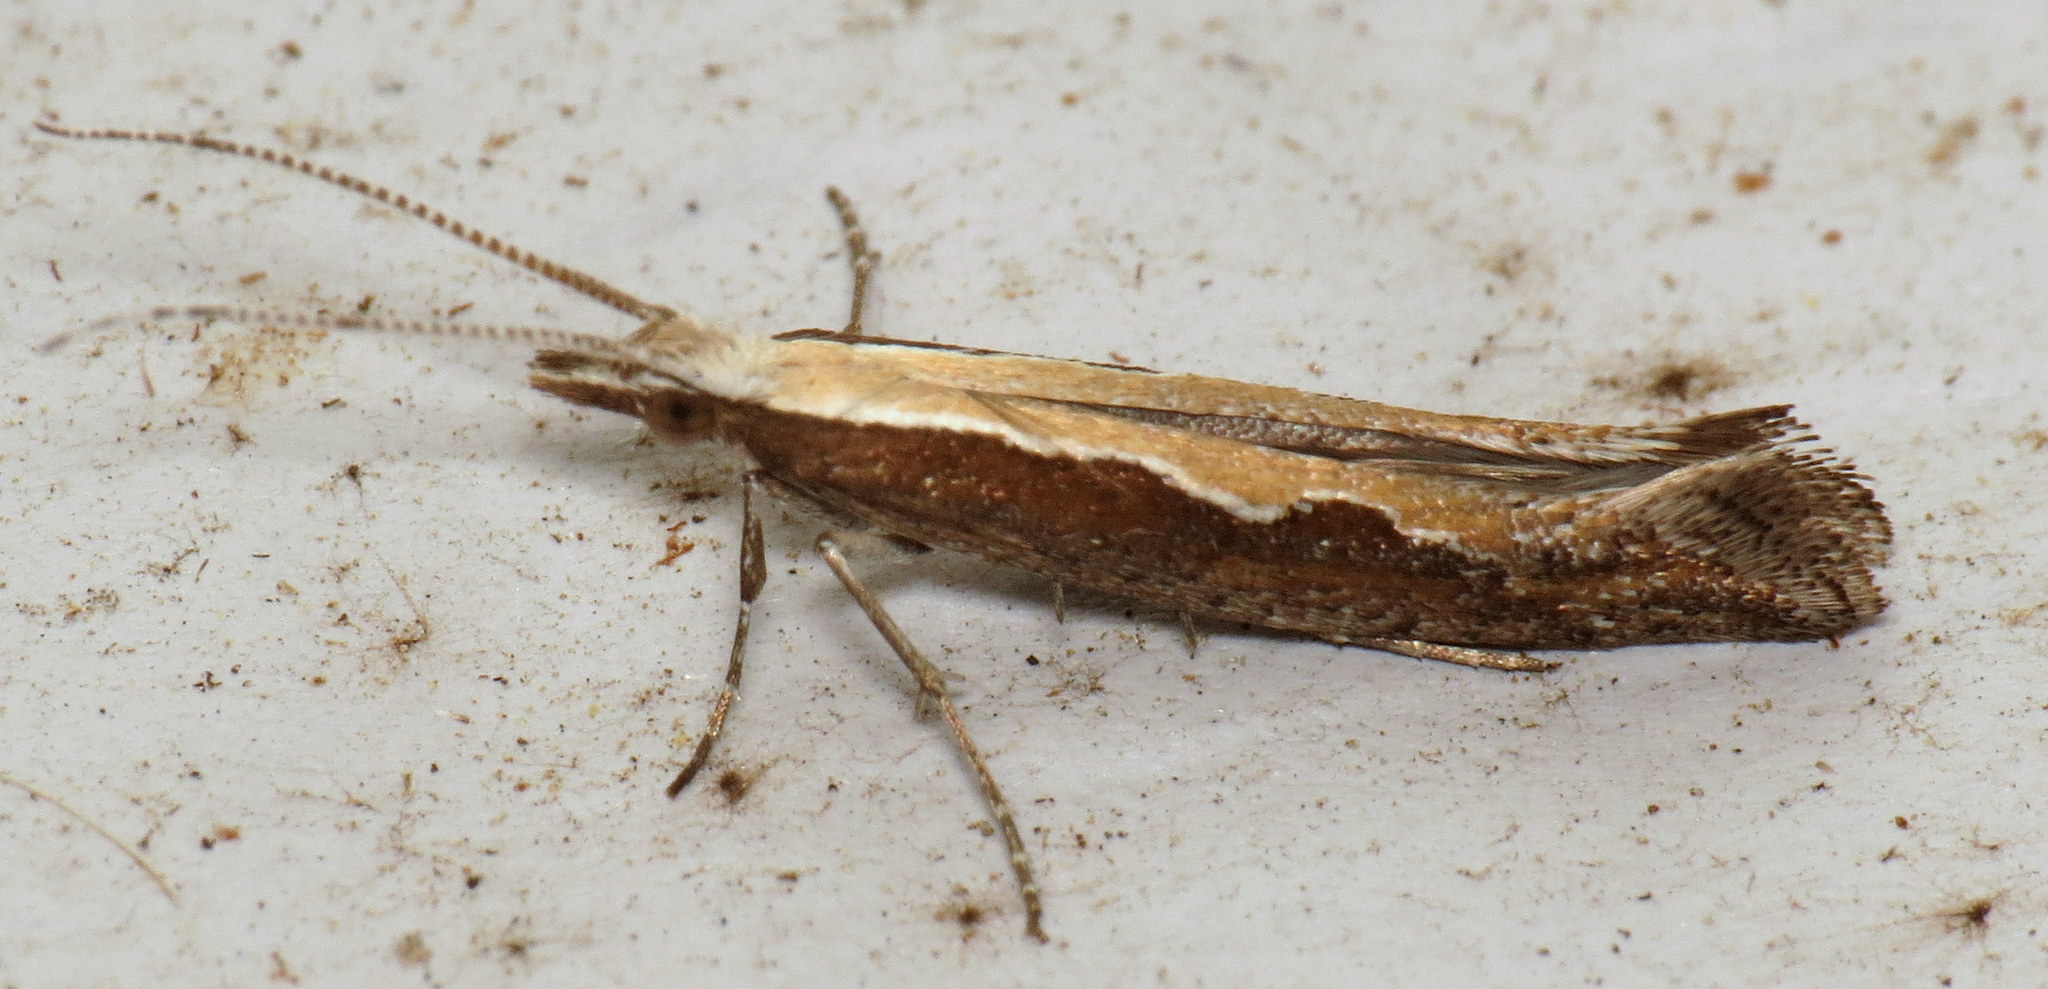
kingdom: Animalia
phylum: Arthropoda
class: Insecta
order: Lepidoptera
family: Plutellidae
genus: Plutella
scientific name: Plutella xylostella
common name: Diamond-back moth
